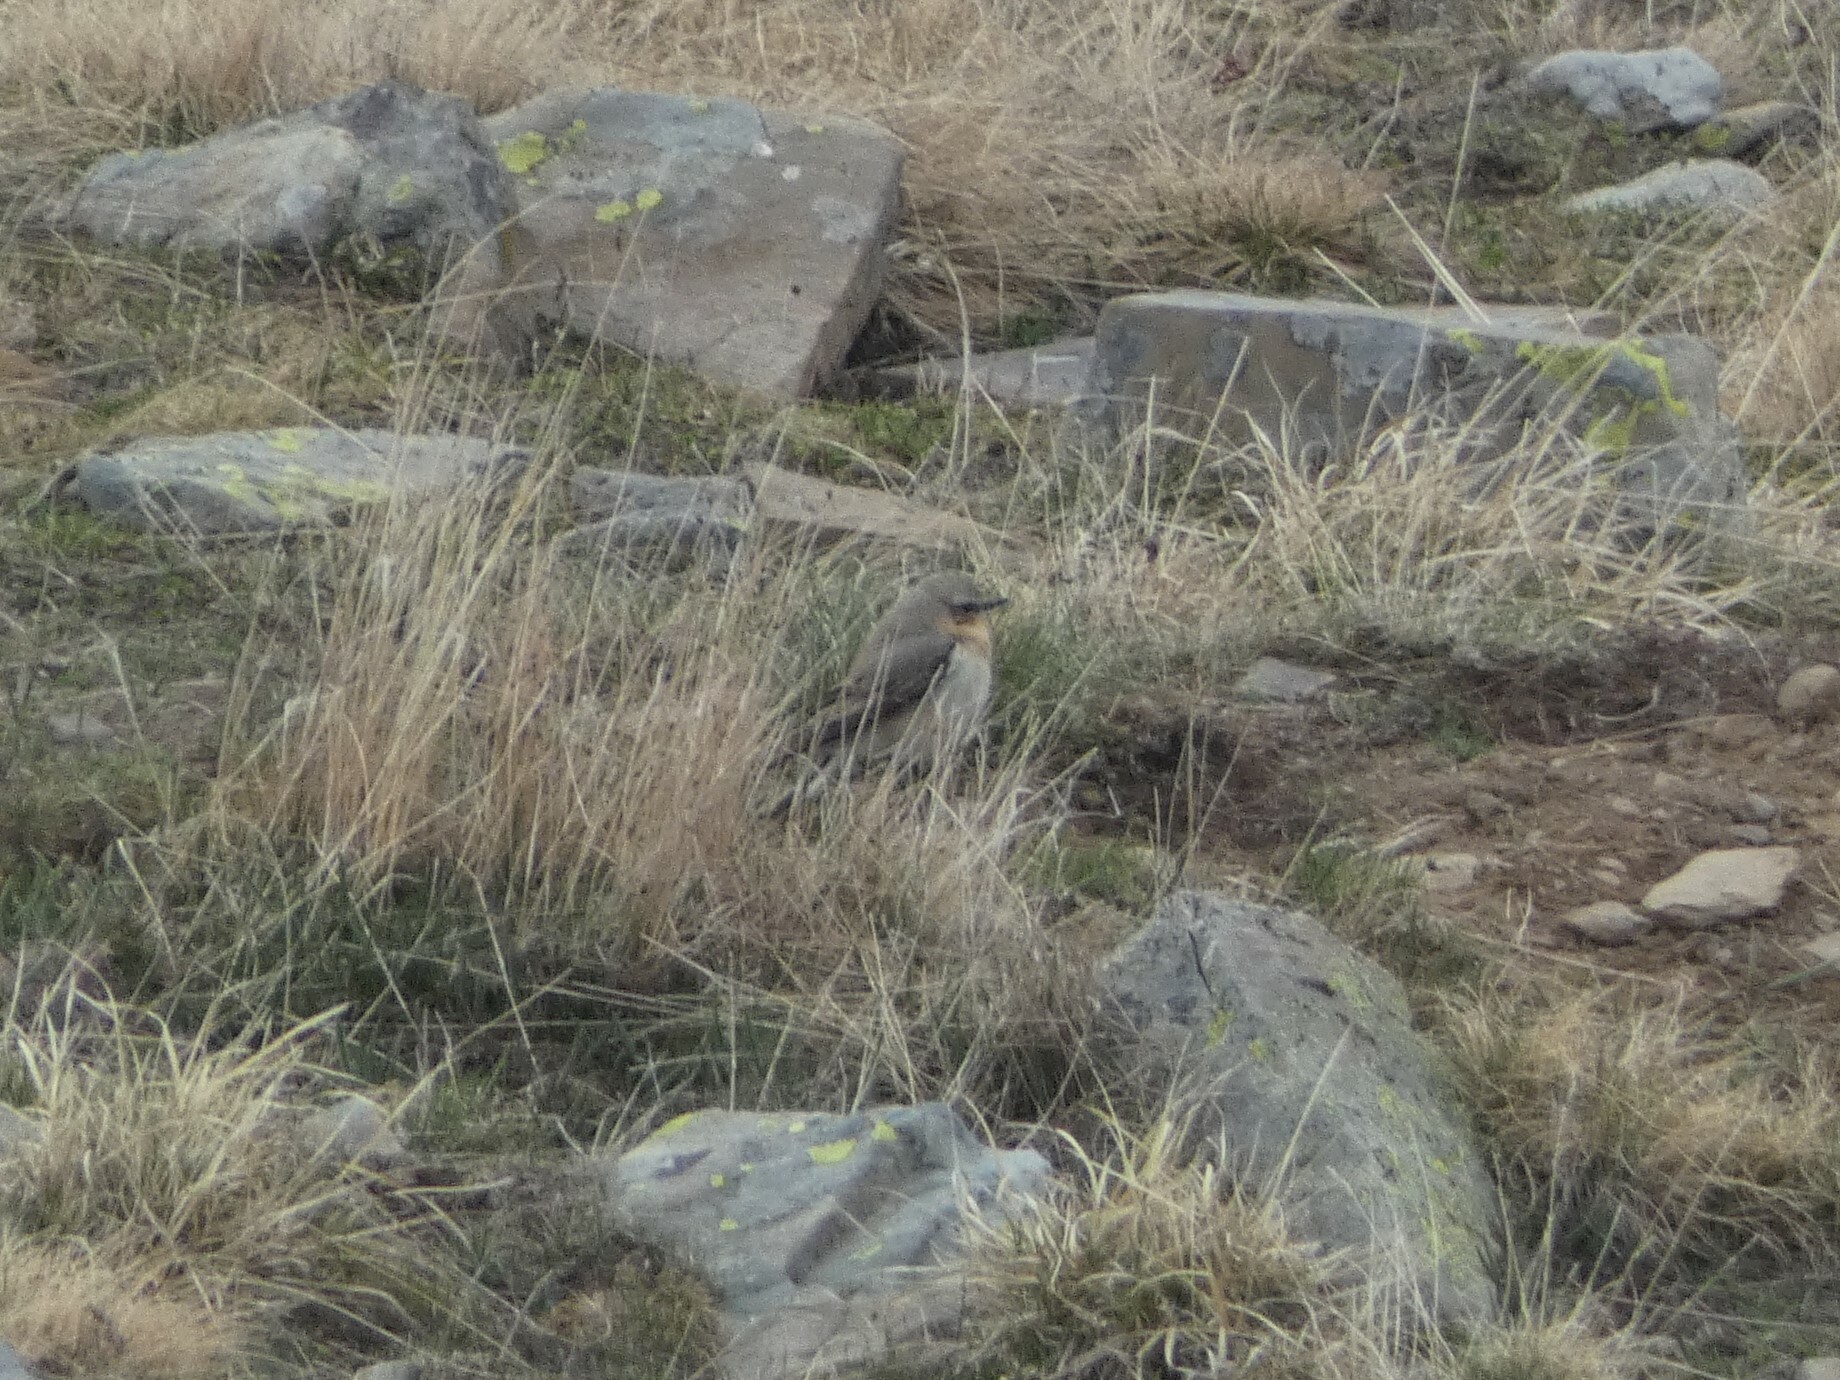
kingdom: Animalia
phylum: Chordata
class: Aves
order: Passeriformes
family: Muscicapidae
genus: Oenanthe
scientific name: Oenanthe oenanthe
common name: Northern wheatear
